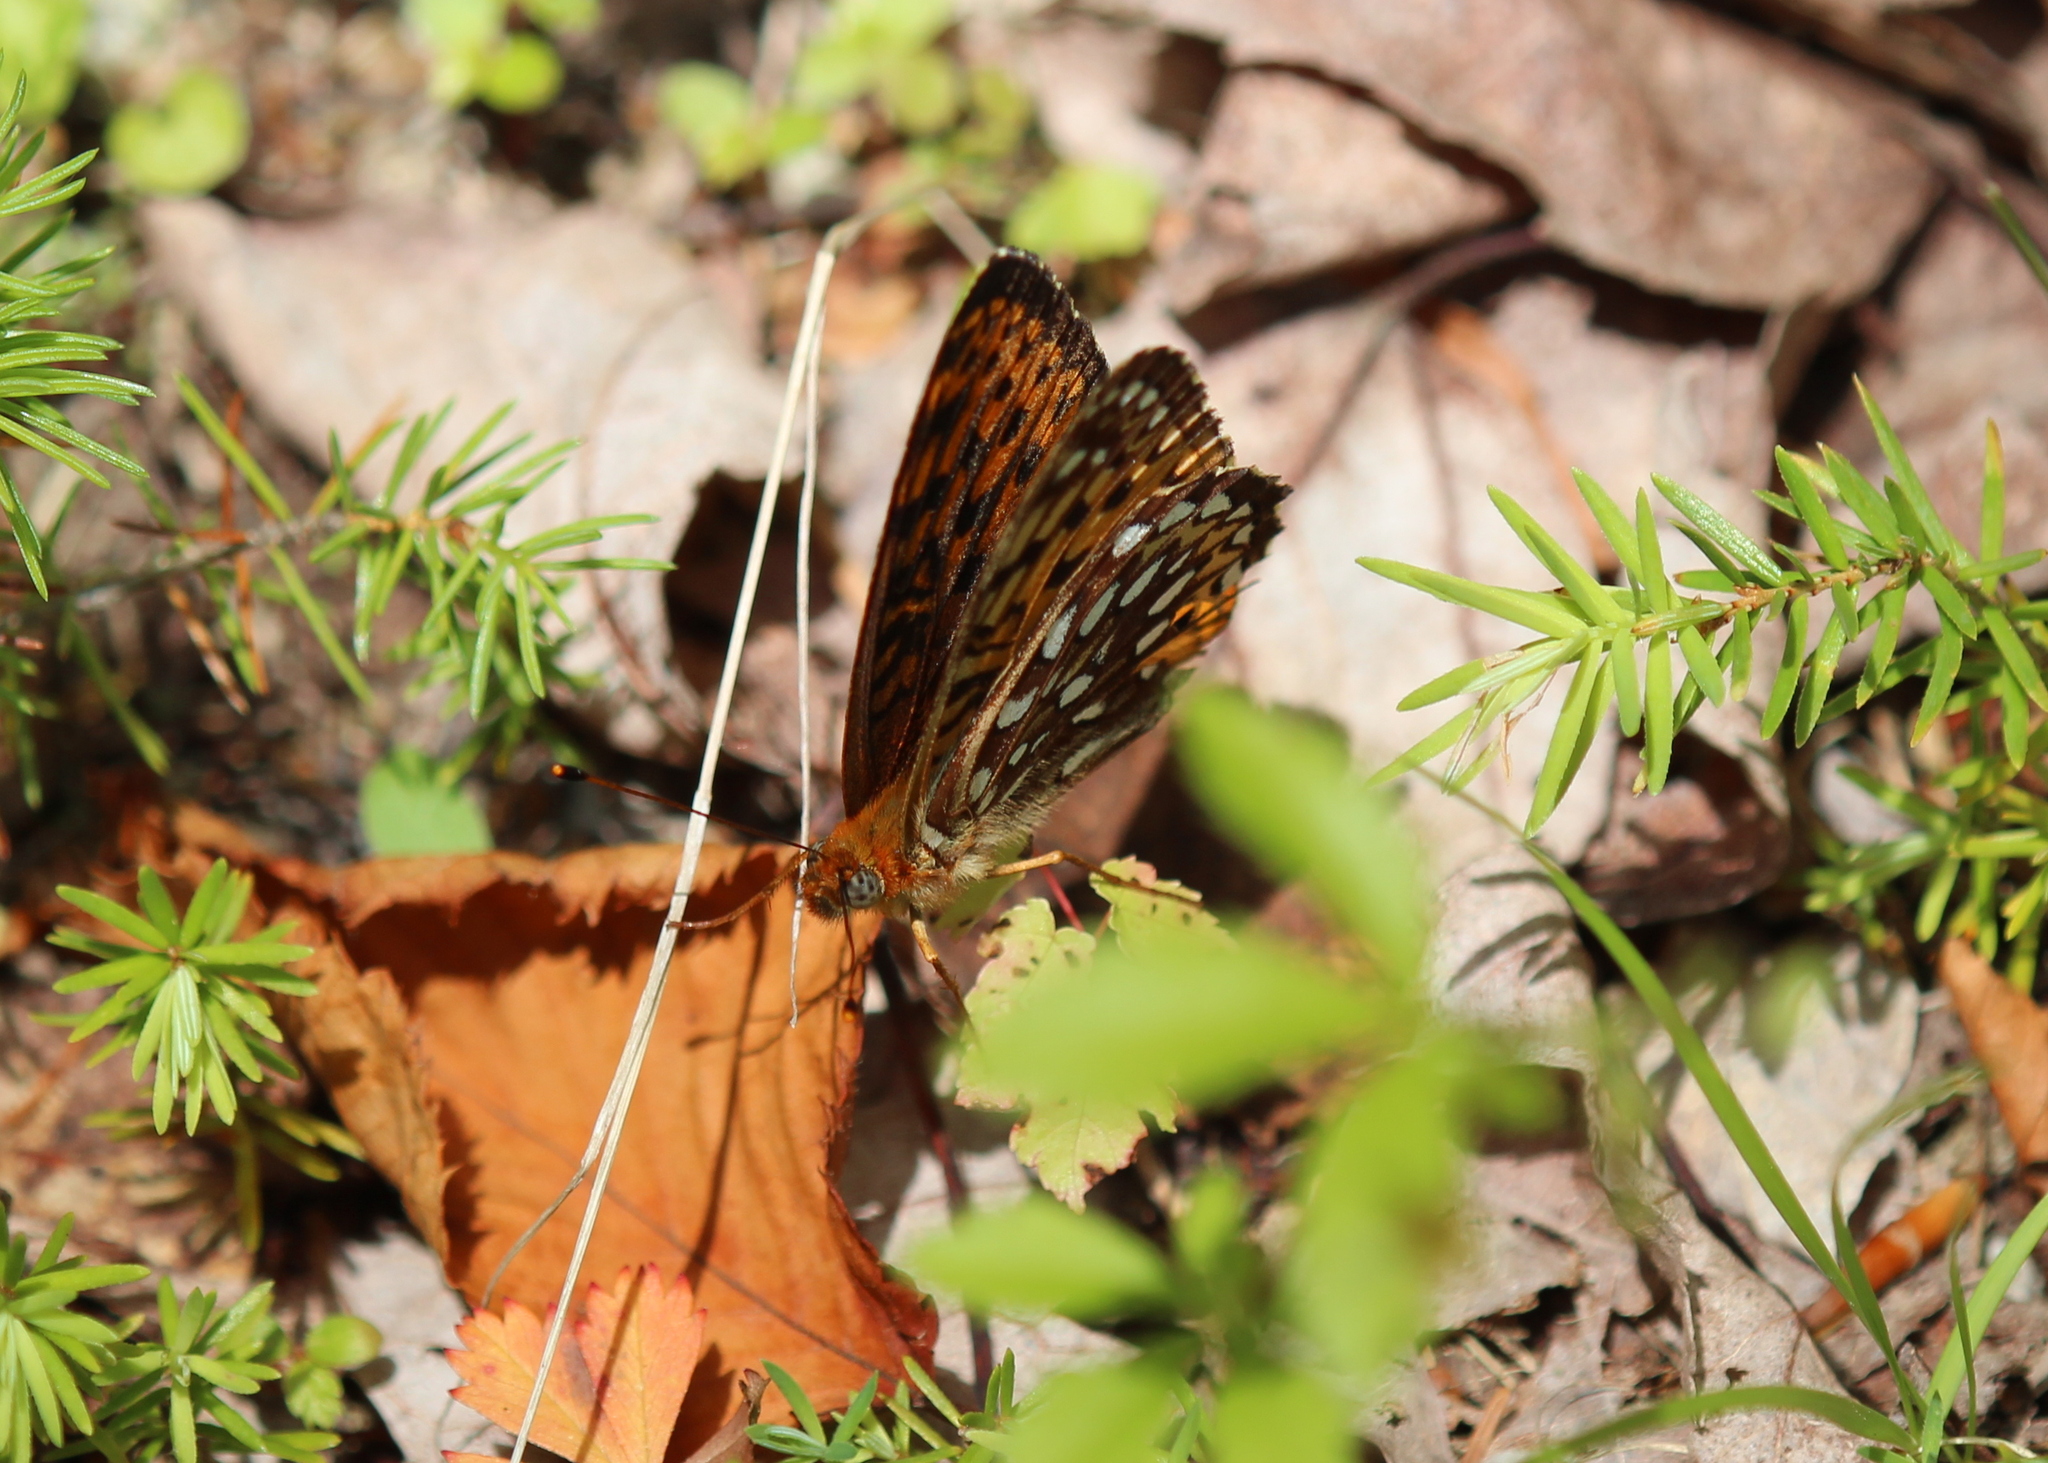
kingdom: Animalia
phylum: Arthropoda
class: Insecta
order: Lepidoptera
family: Nymphalidae
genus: Speyeria
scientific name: Speyeria atlantis
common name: Atlantis fritillary
